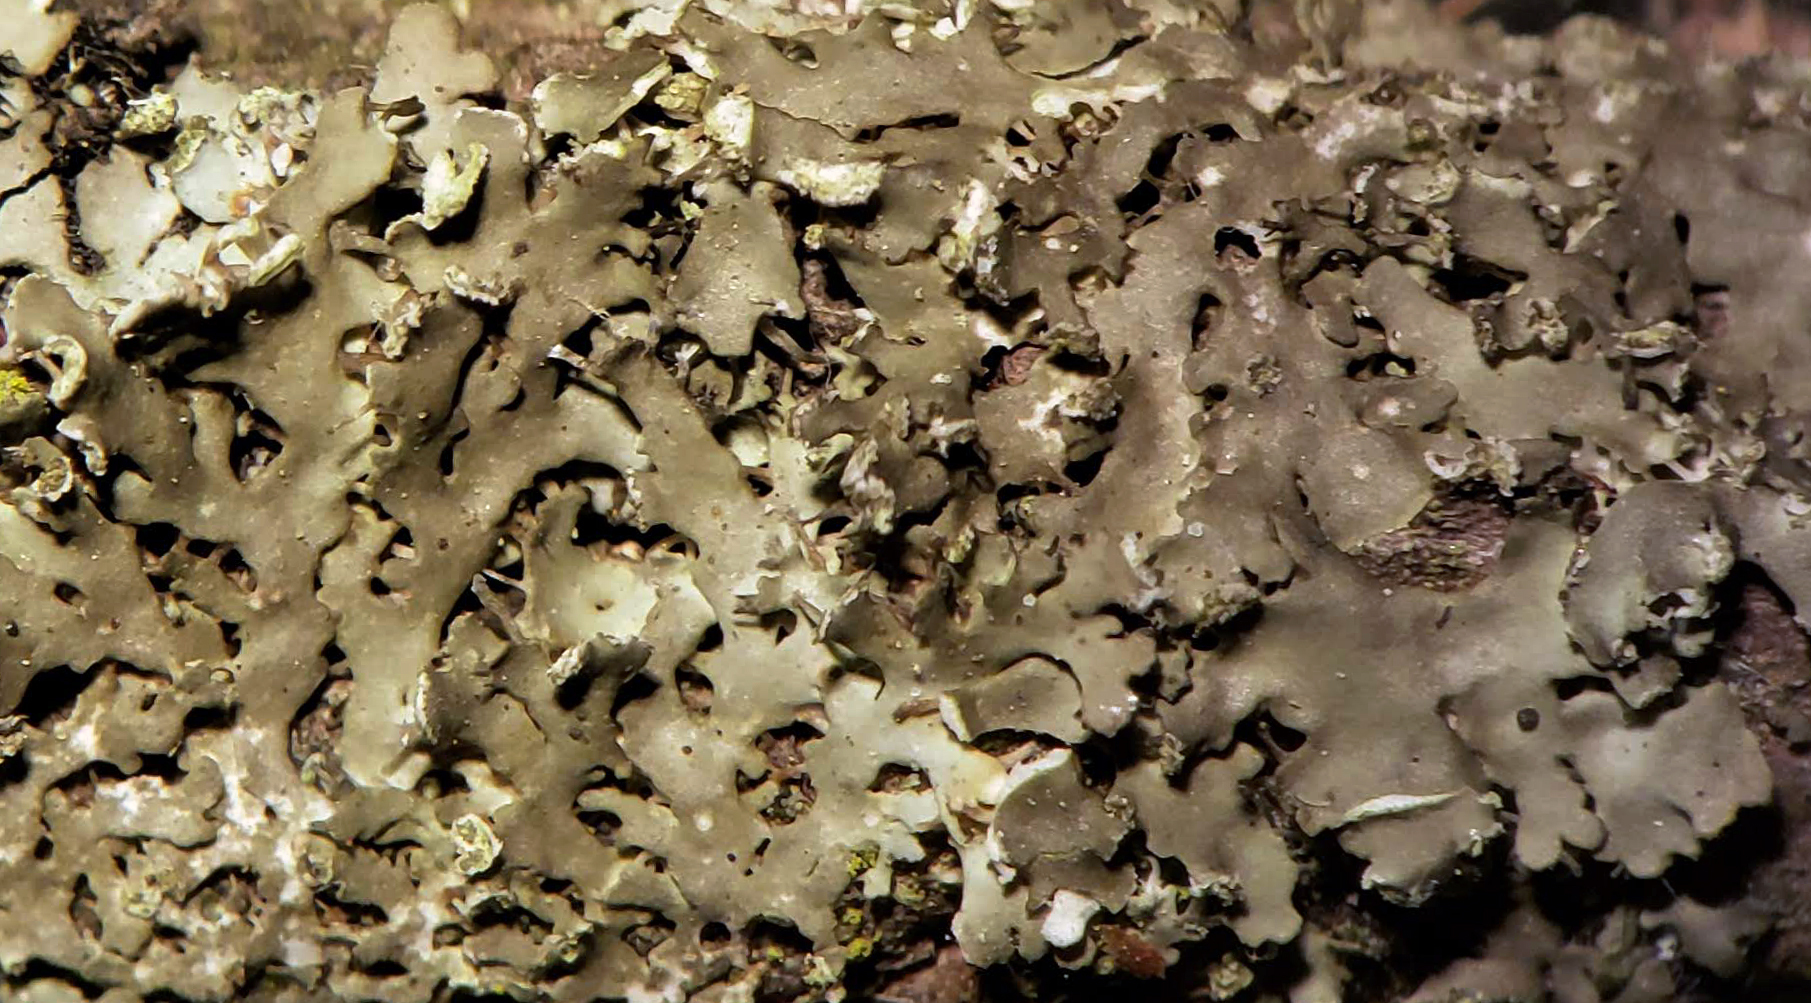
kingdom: Fungi
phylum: Ascomycota
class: Lecanoromycetes
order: Caliciales
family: Physciaceae
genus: Physciella
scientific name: Physciella chloantha
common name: Cryptic rosette lichen
